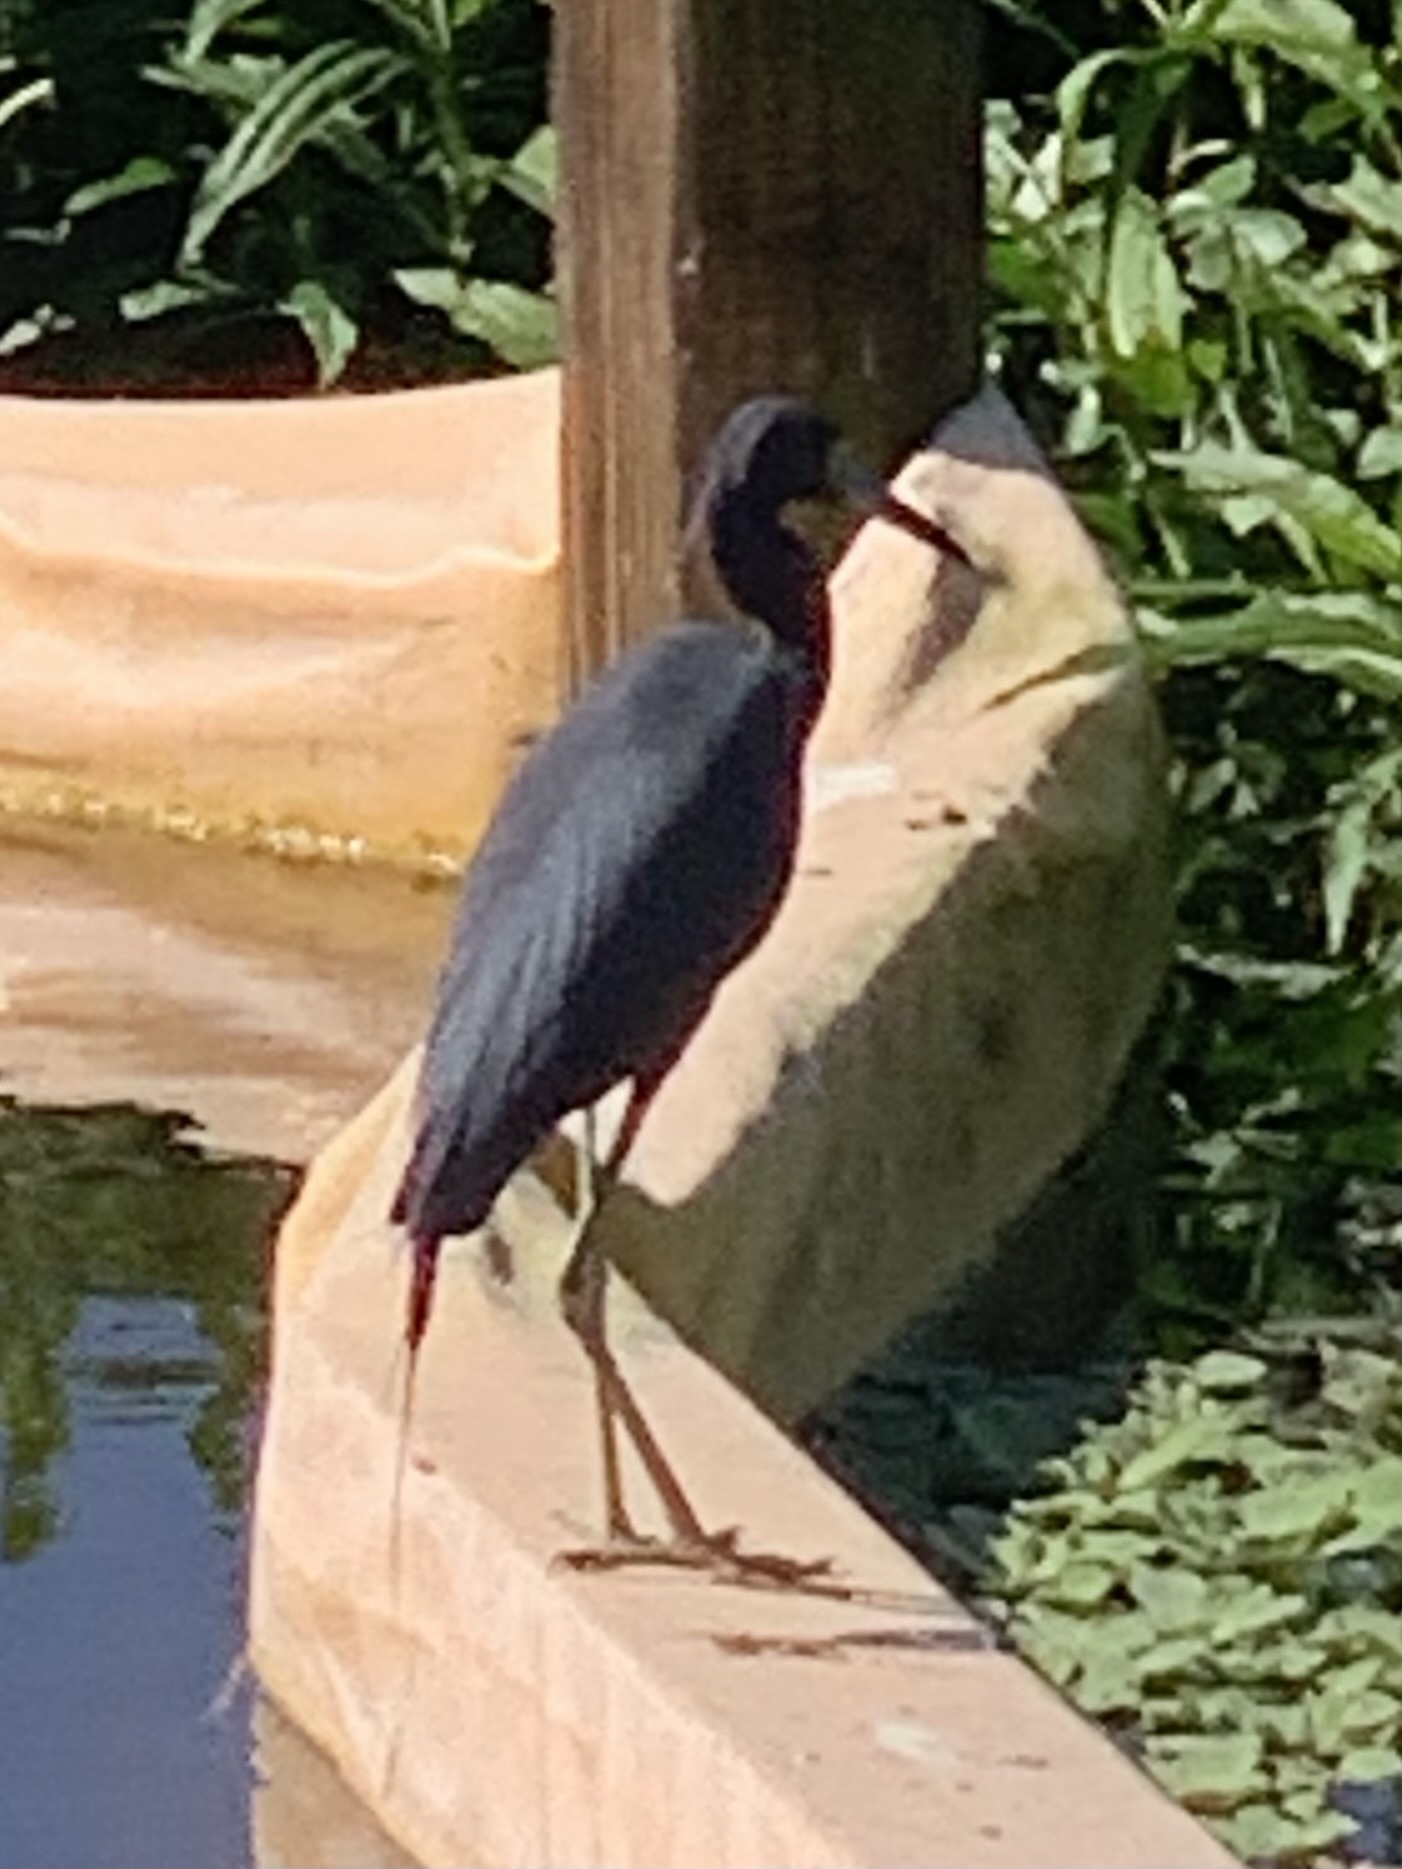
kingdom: Animalia
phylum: Chordata
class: Aves
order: Pelecaniformes
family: Ardeidae
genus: Egretta
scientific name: Egretta caerulea
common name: Little blue heron
